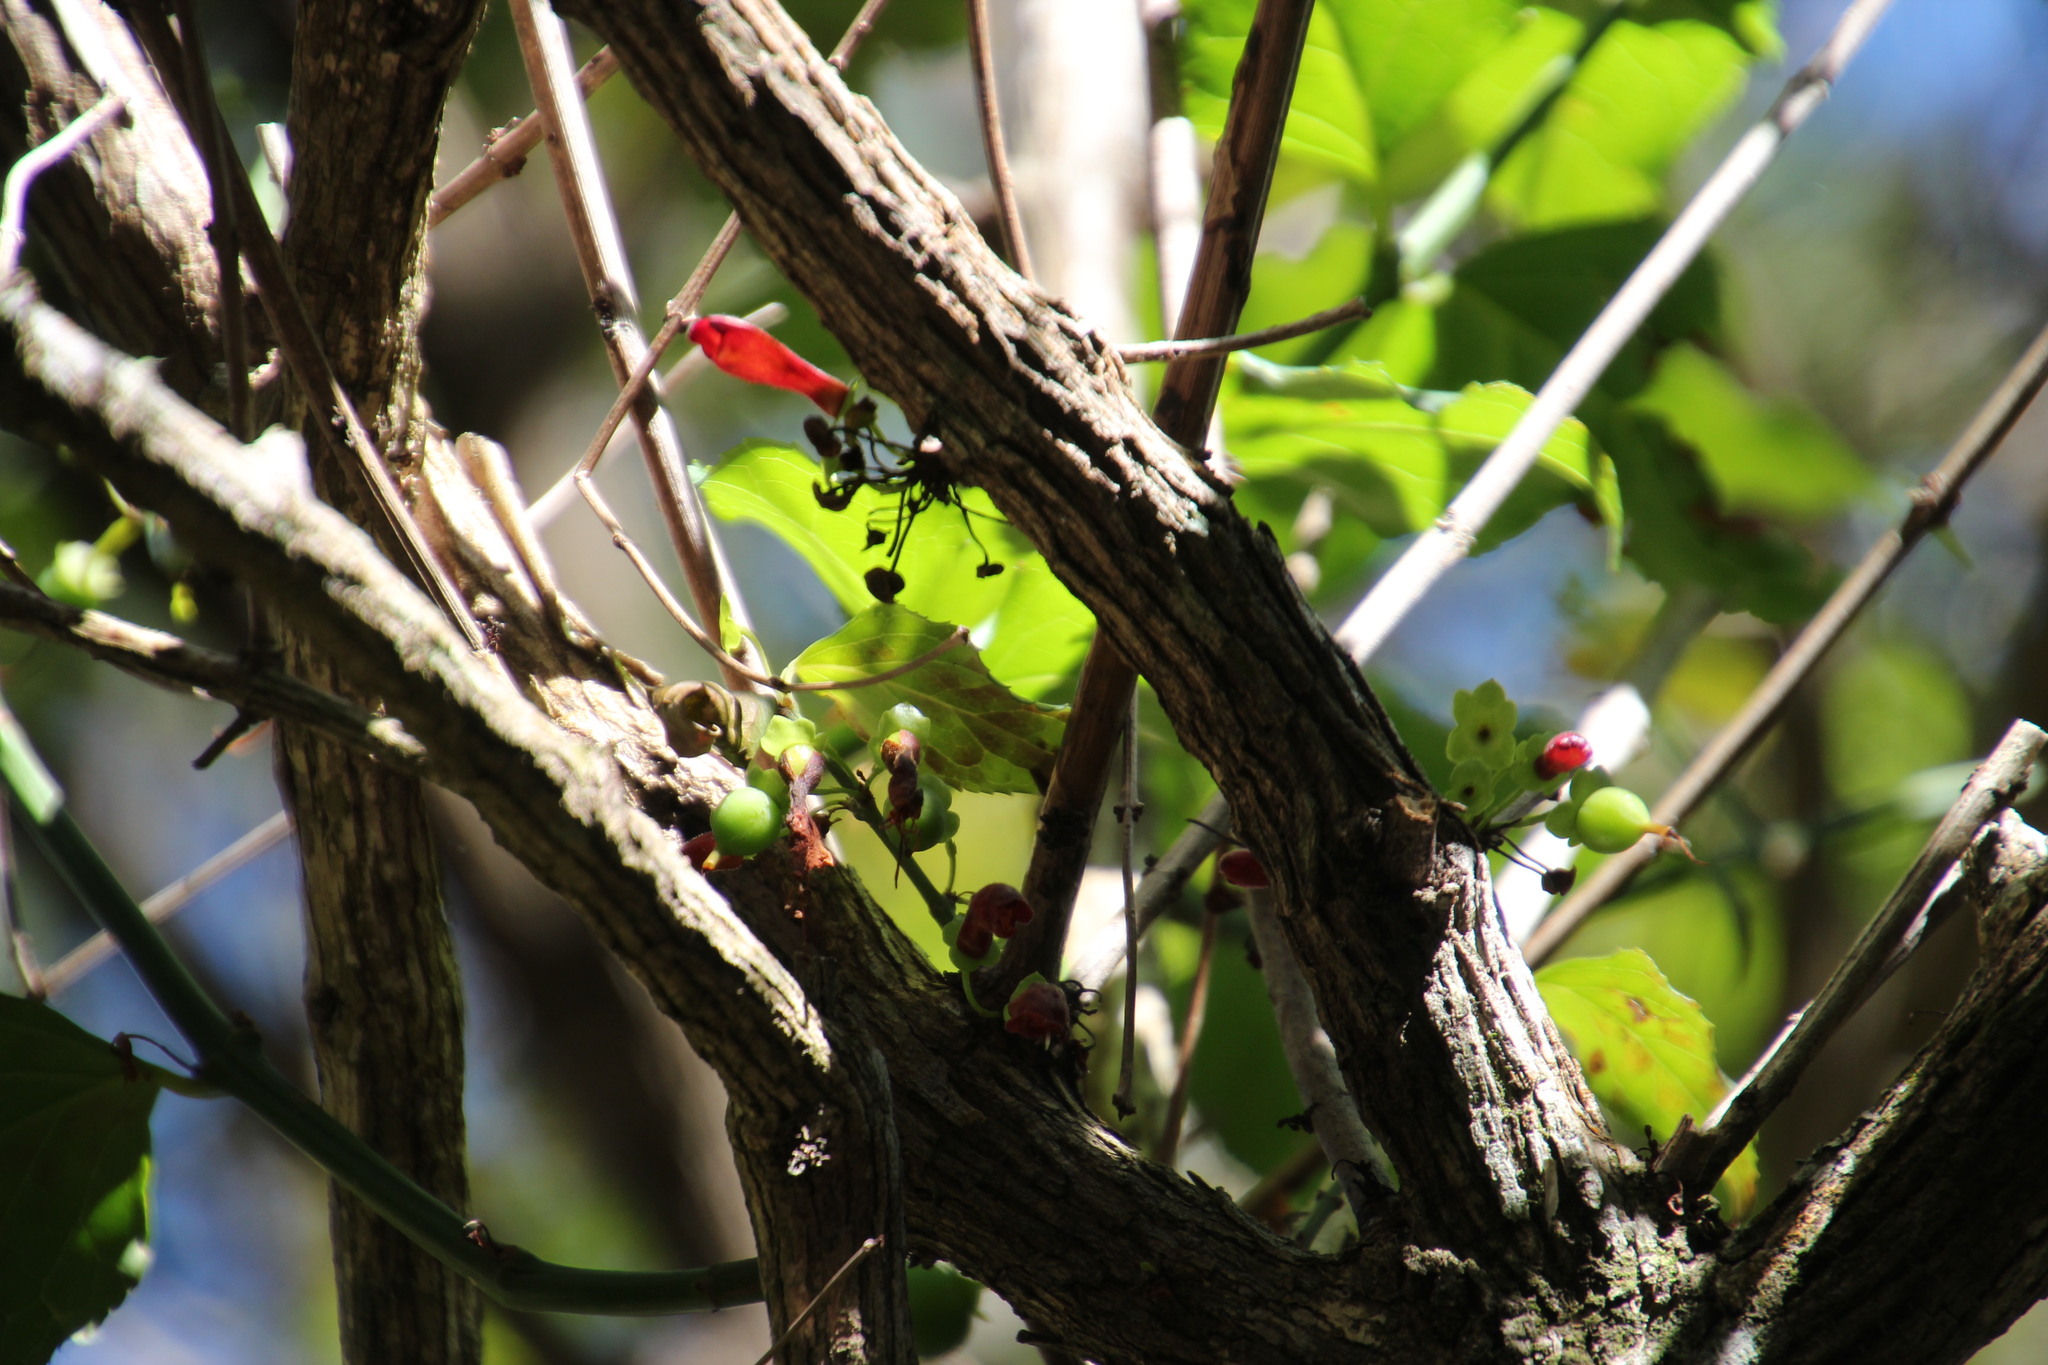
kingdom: Plantae
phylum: Tracheophyta
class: Magnoliopsida
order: Lamiales
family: Stilbaceae
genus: Halleria
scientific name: Halleria lucida
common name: Tree fuschia
